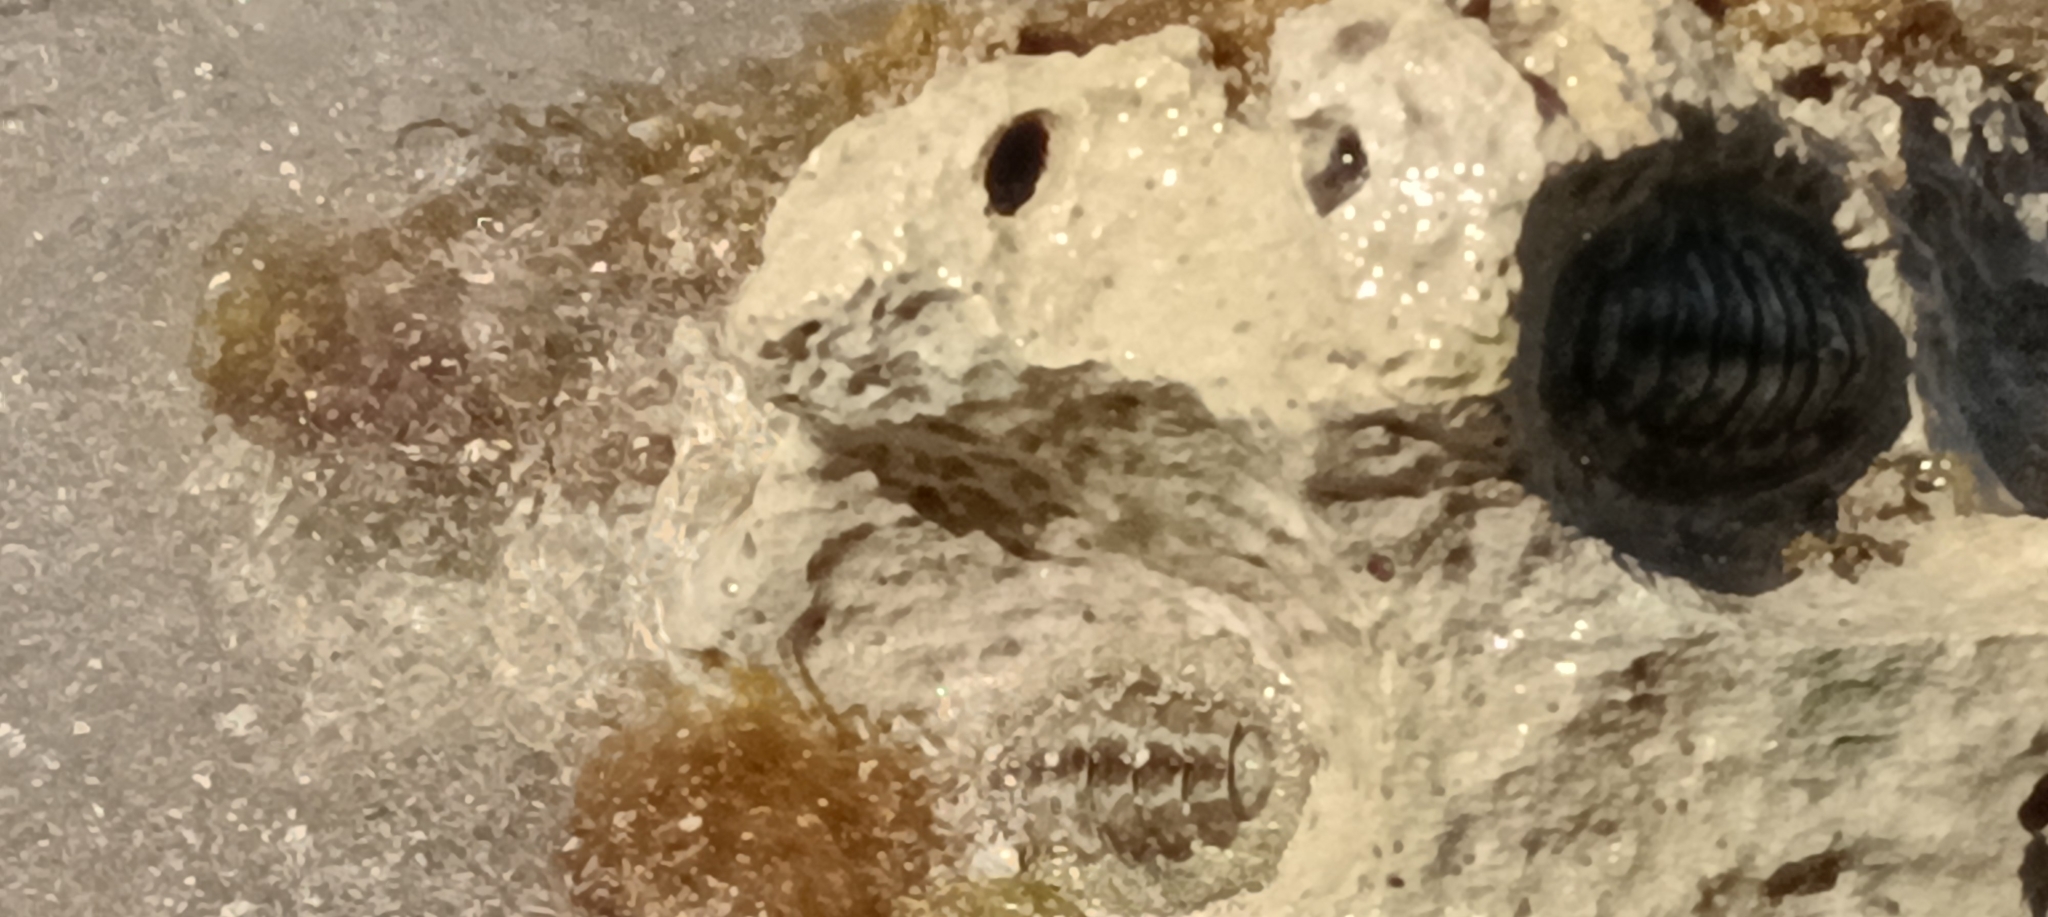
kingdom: Animalia
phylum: Mollusca
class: Polyplacophora
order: Chitonida
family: Chitonidae
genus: Acanthopleura
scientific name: Acanthopleura granulata
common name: West indian fuzzy chiton
